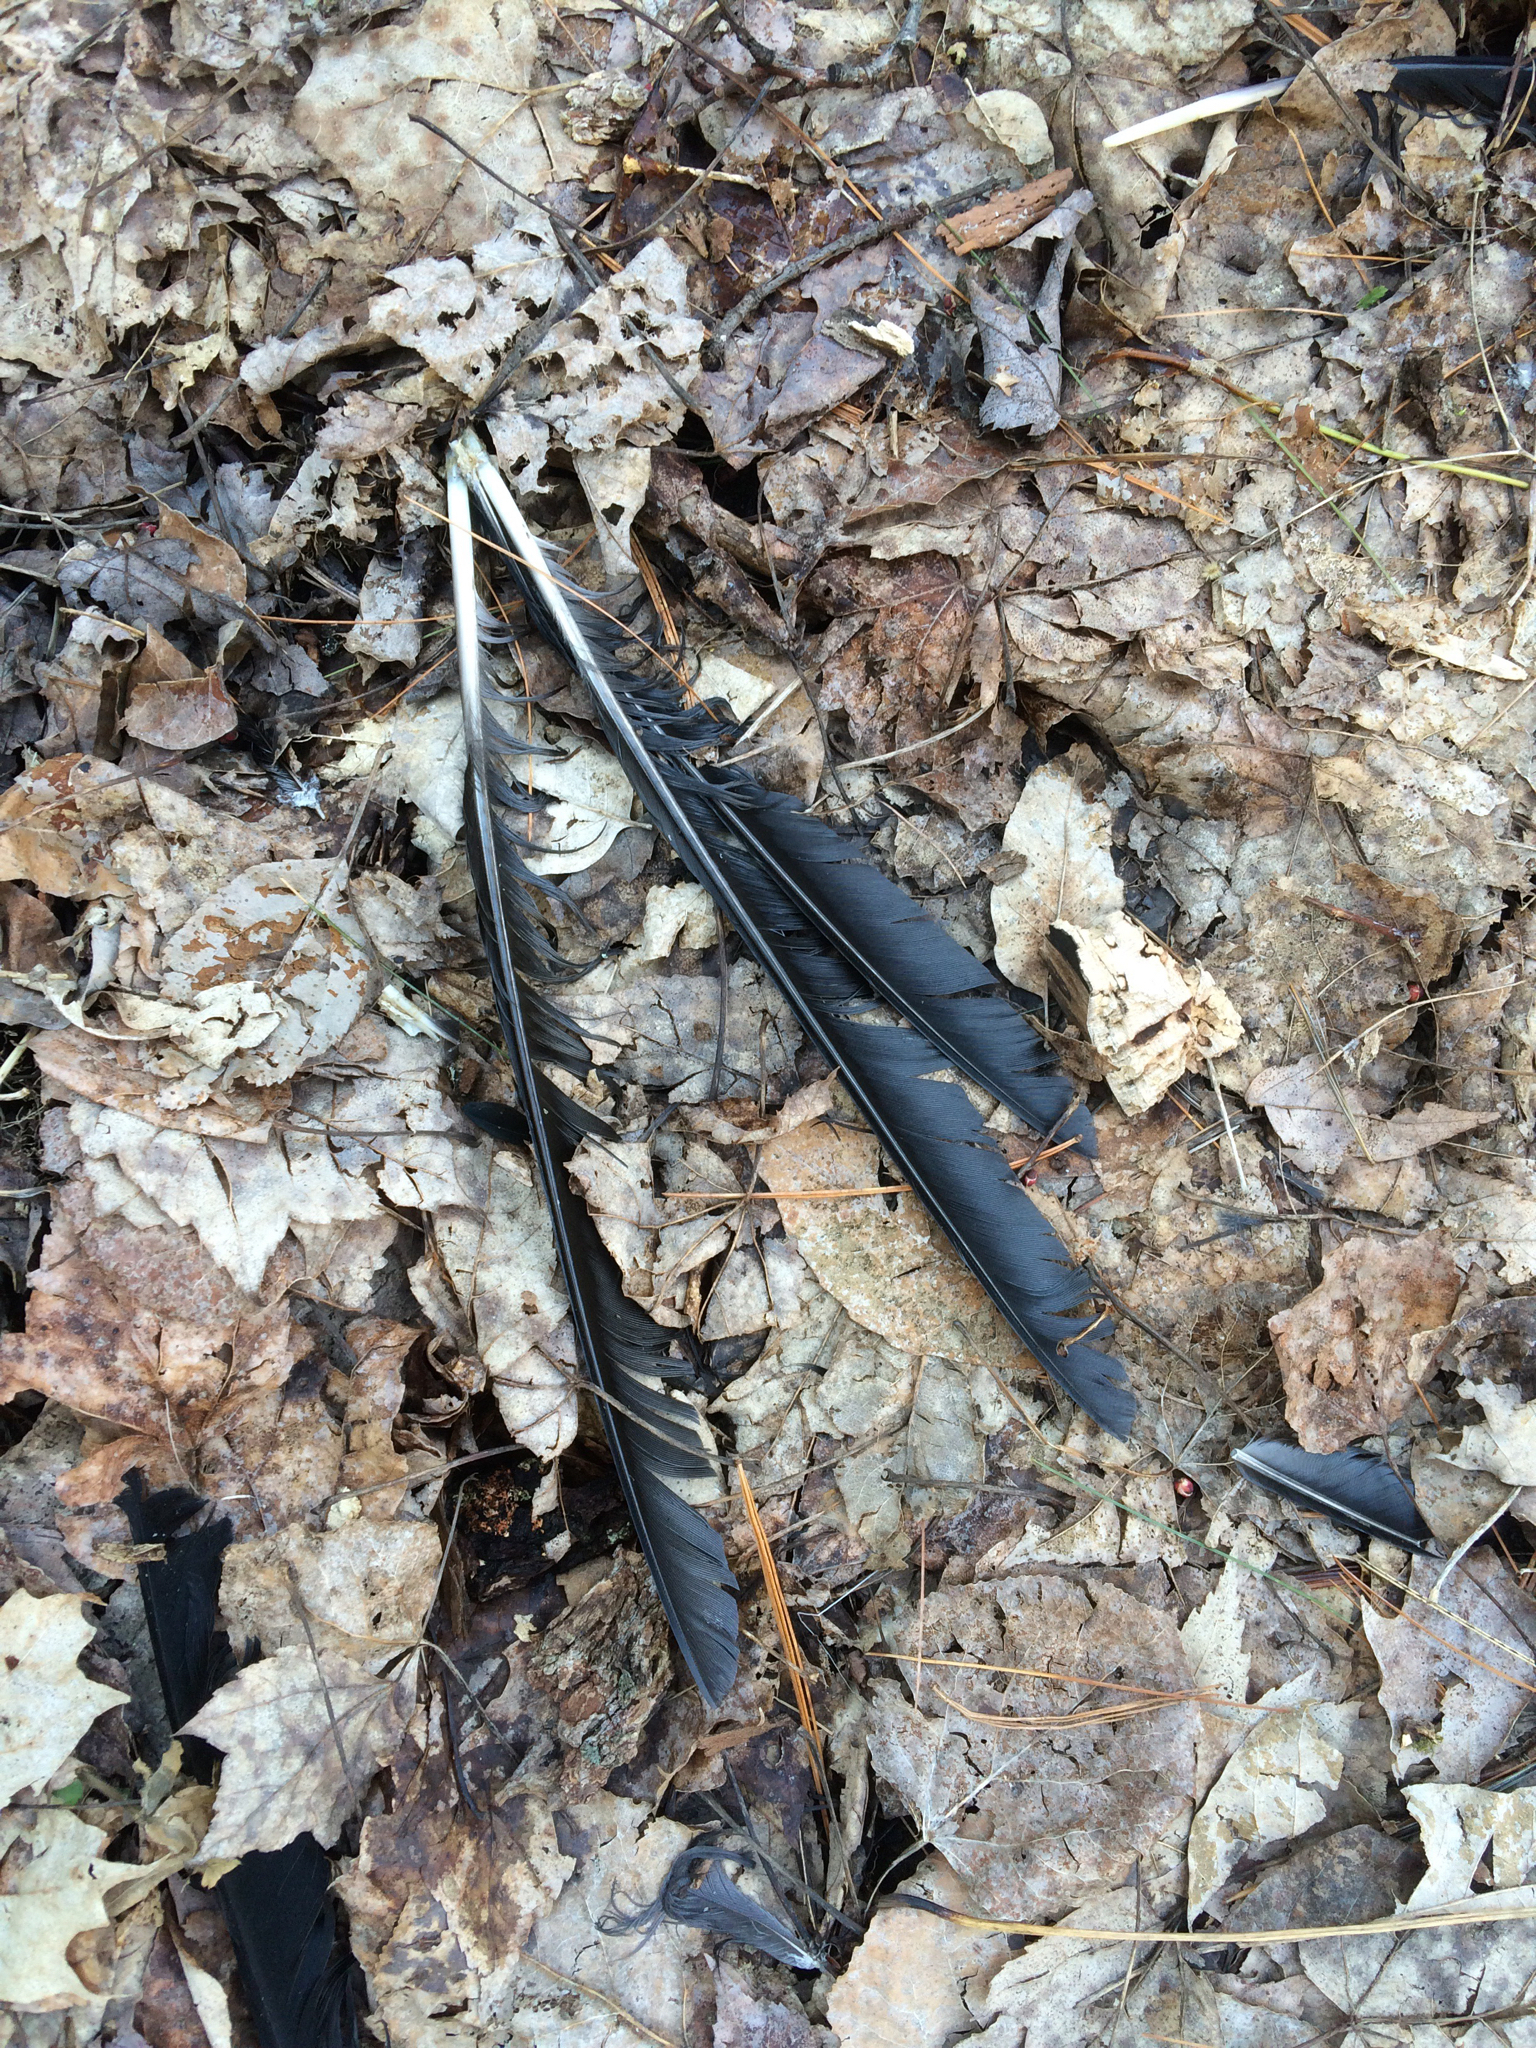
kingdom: Animalia
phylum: Chordata
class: Aves
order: Passeriformes
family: Corvidae
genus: Corvus
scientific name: Corvus brachyrhynchos
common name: American crow
